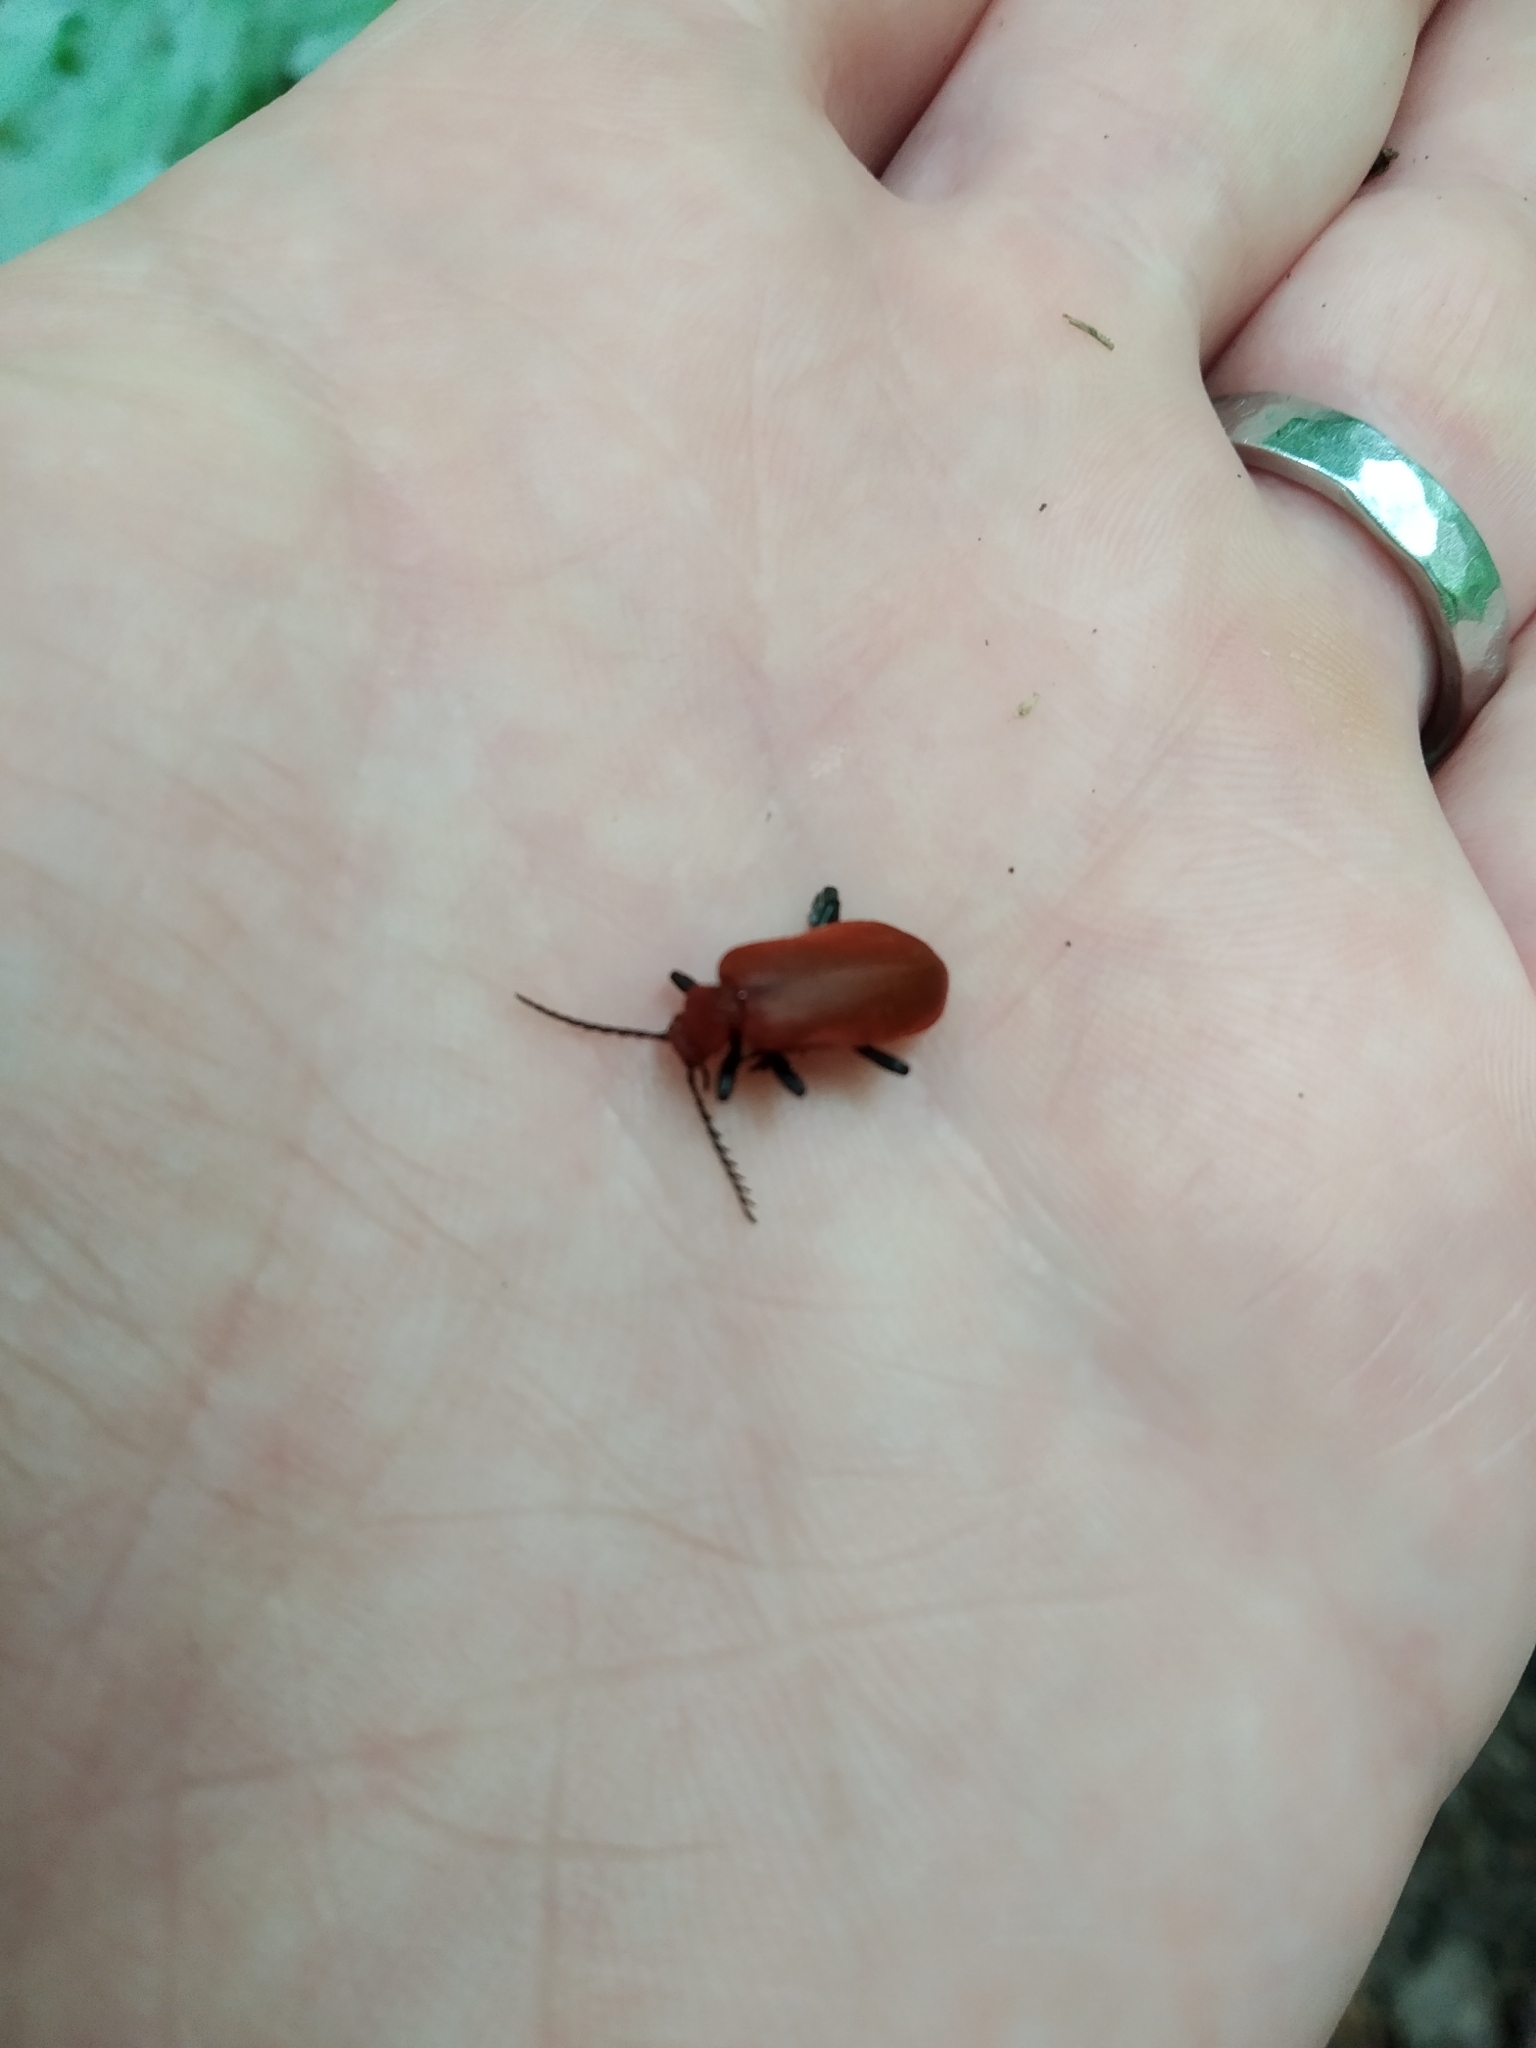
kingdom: Animalia
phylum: Arthropoda
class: Insecta
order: Coleoptera
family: Pyrochroidae
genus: Pyrochroa
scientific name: Pyrochroa serraticornis
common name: Red-headed cardinal beetle
